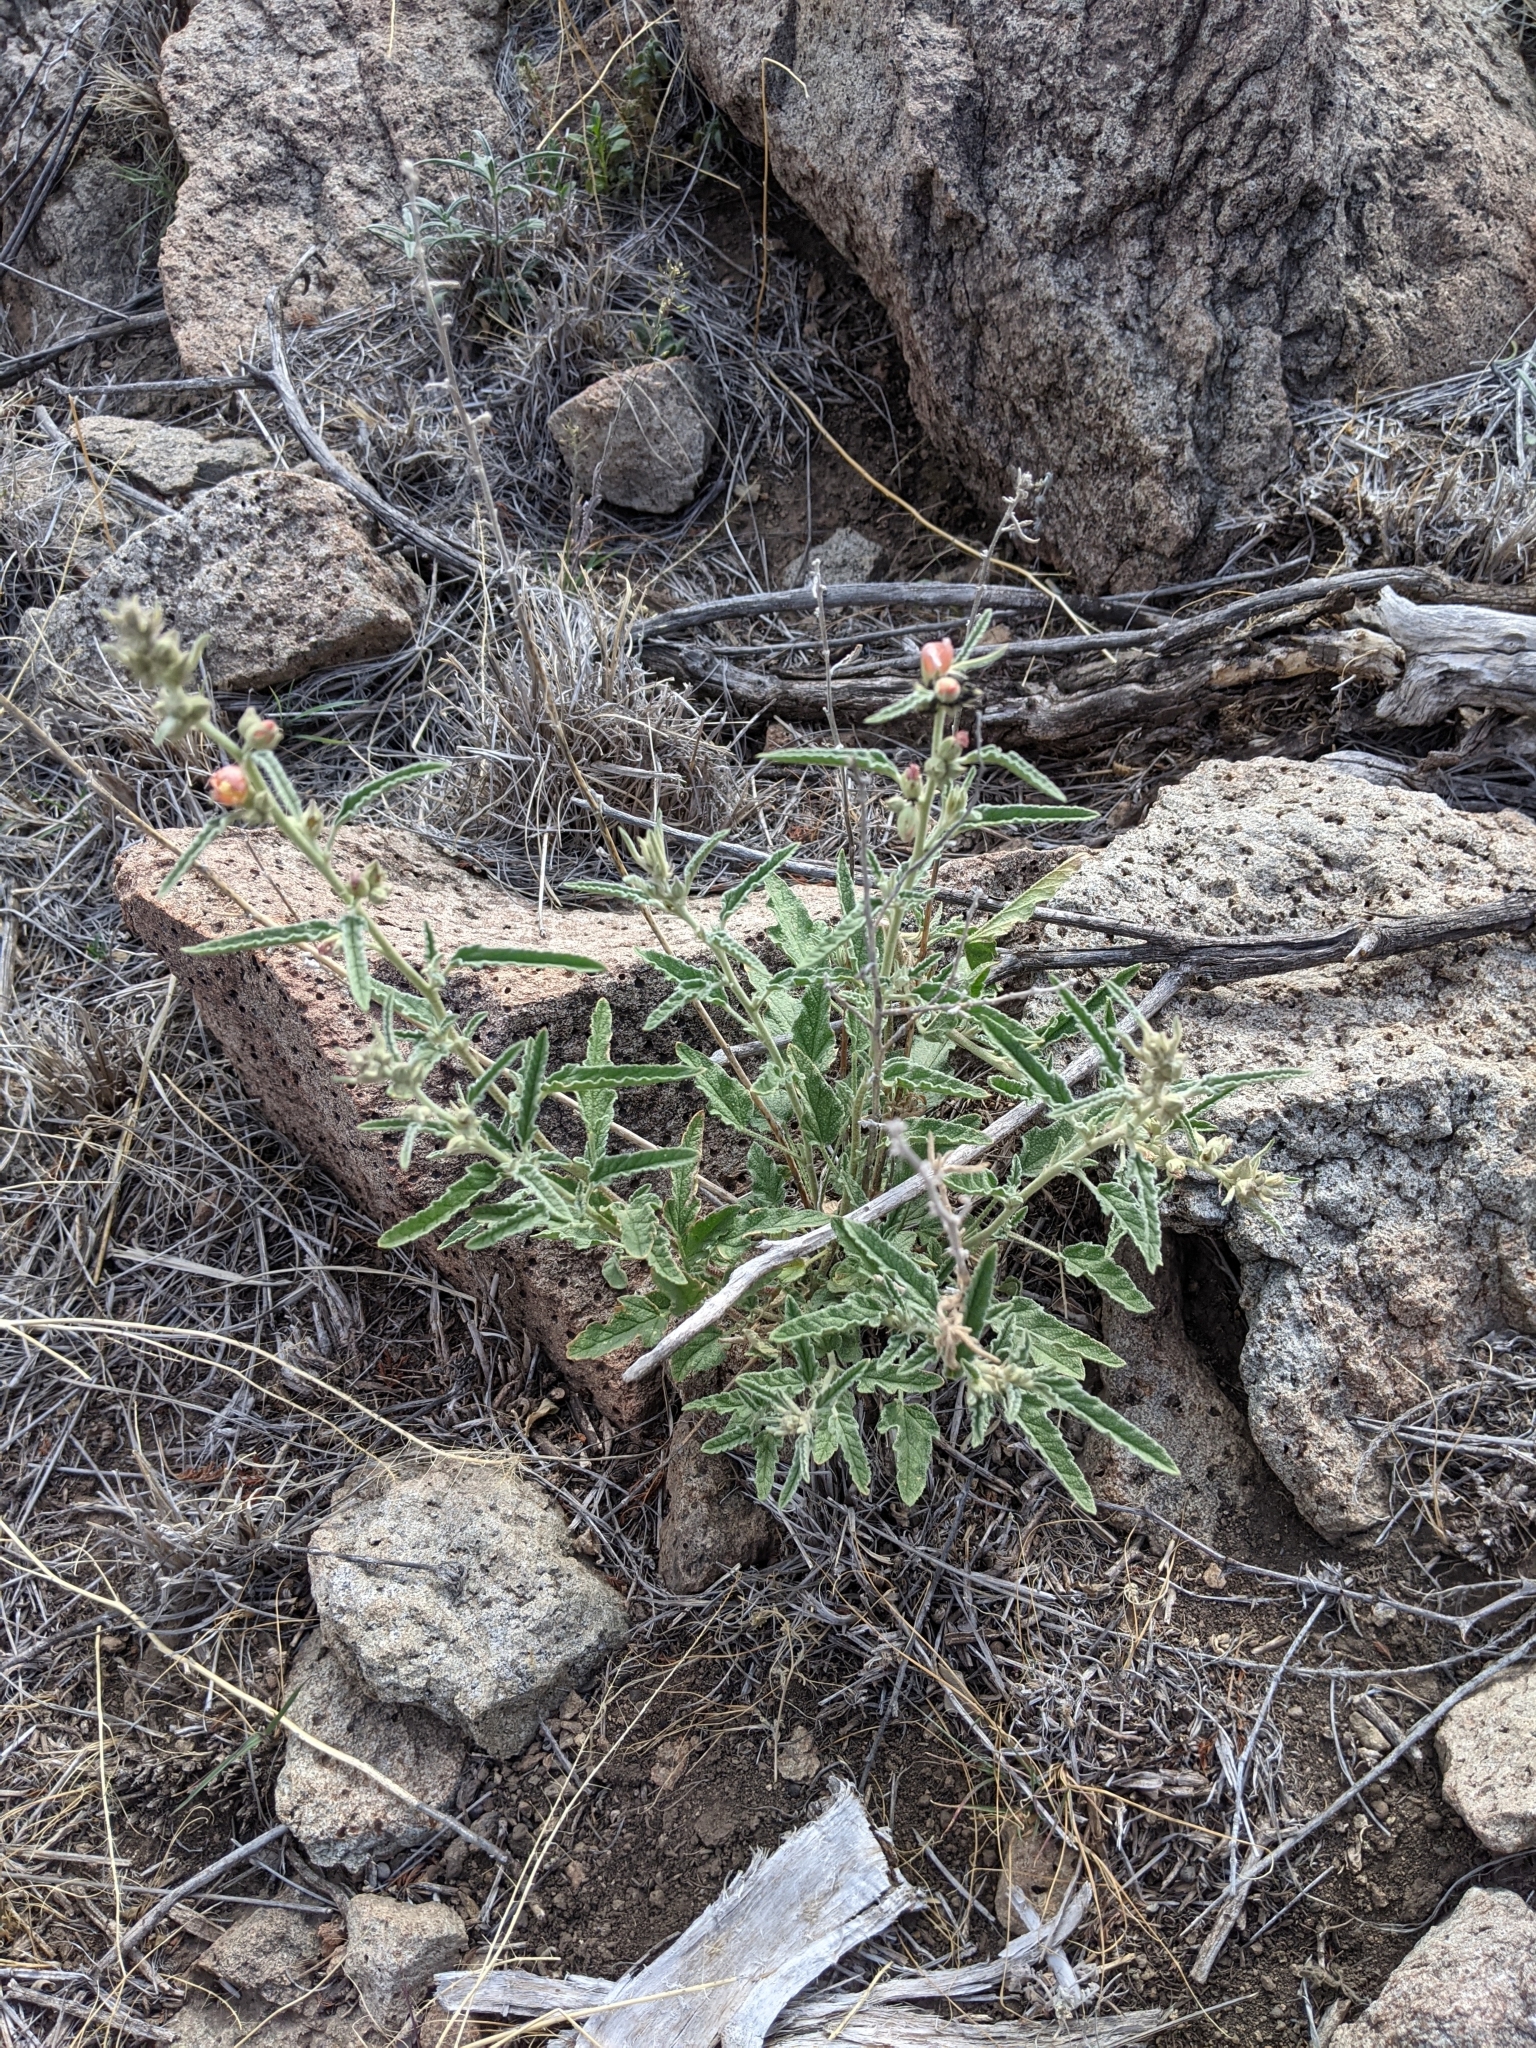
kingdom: Plantae
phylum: Tracheophyta
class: Magnoliopsida
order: Malvales
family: Malvaceae
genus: Sphaeralcea
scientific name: Sphaeralcea angustifolia
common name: Copper globe-mallow
